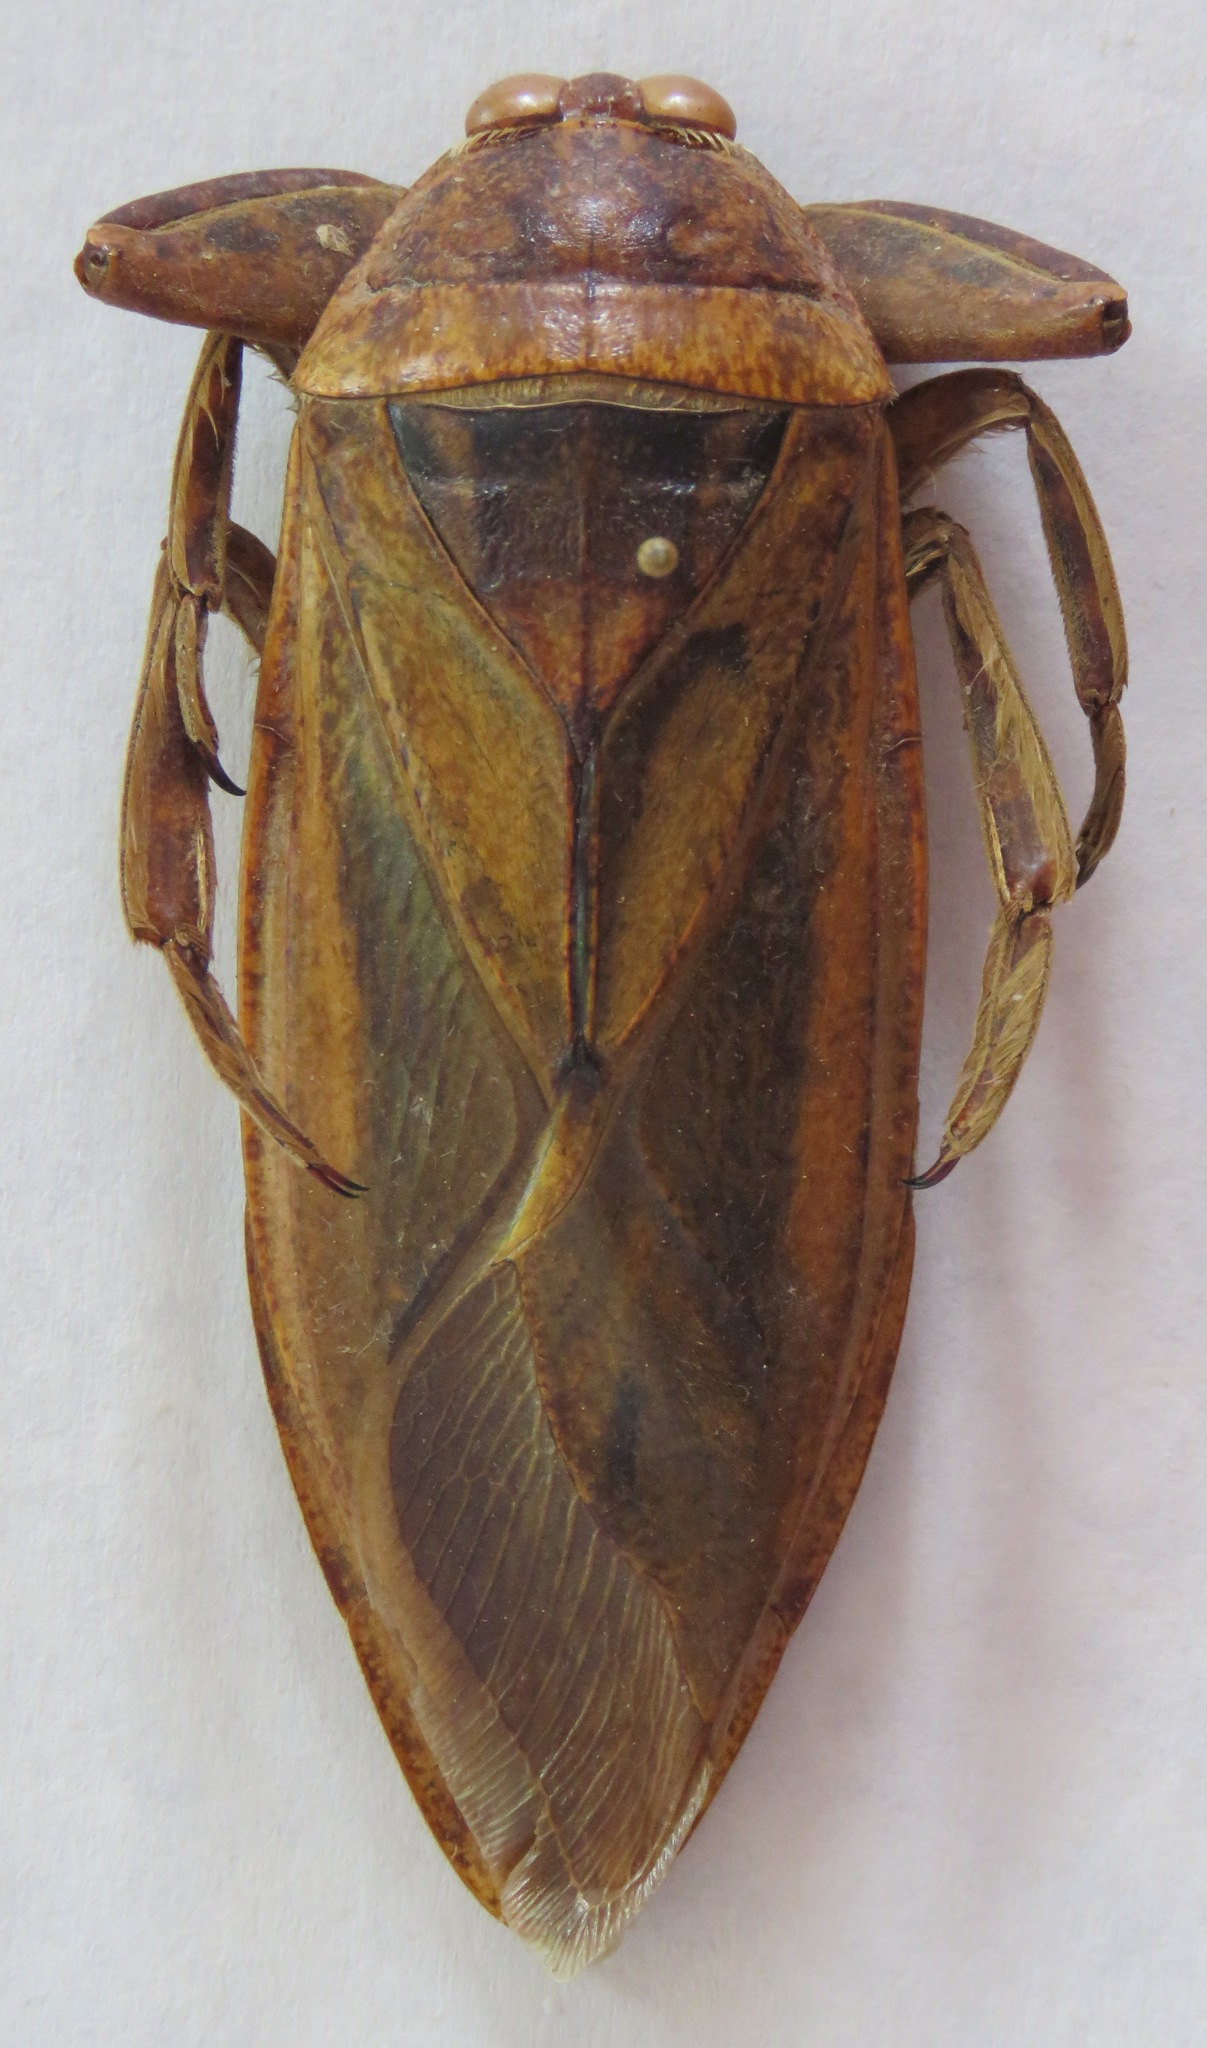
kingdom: Animalia
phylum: Arthropoda
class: Insecta
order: Hemiptera
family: Belostomatidae
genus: Lethocerus
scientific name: Lethocerus annulipes
